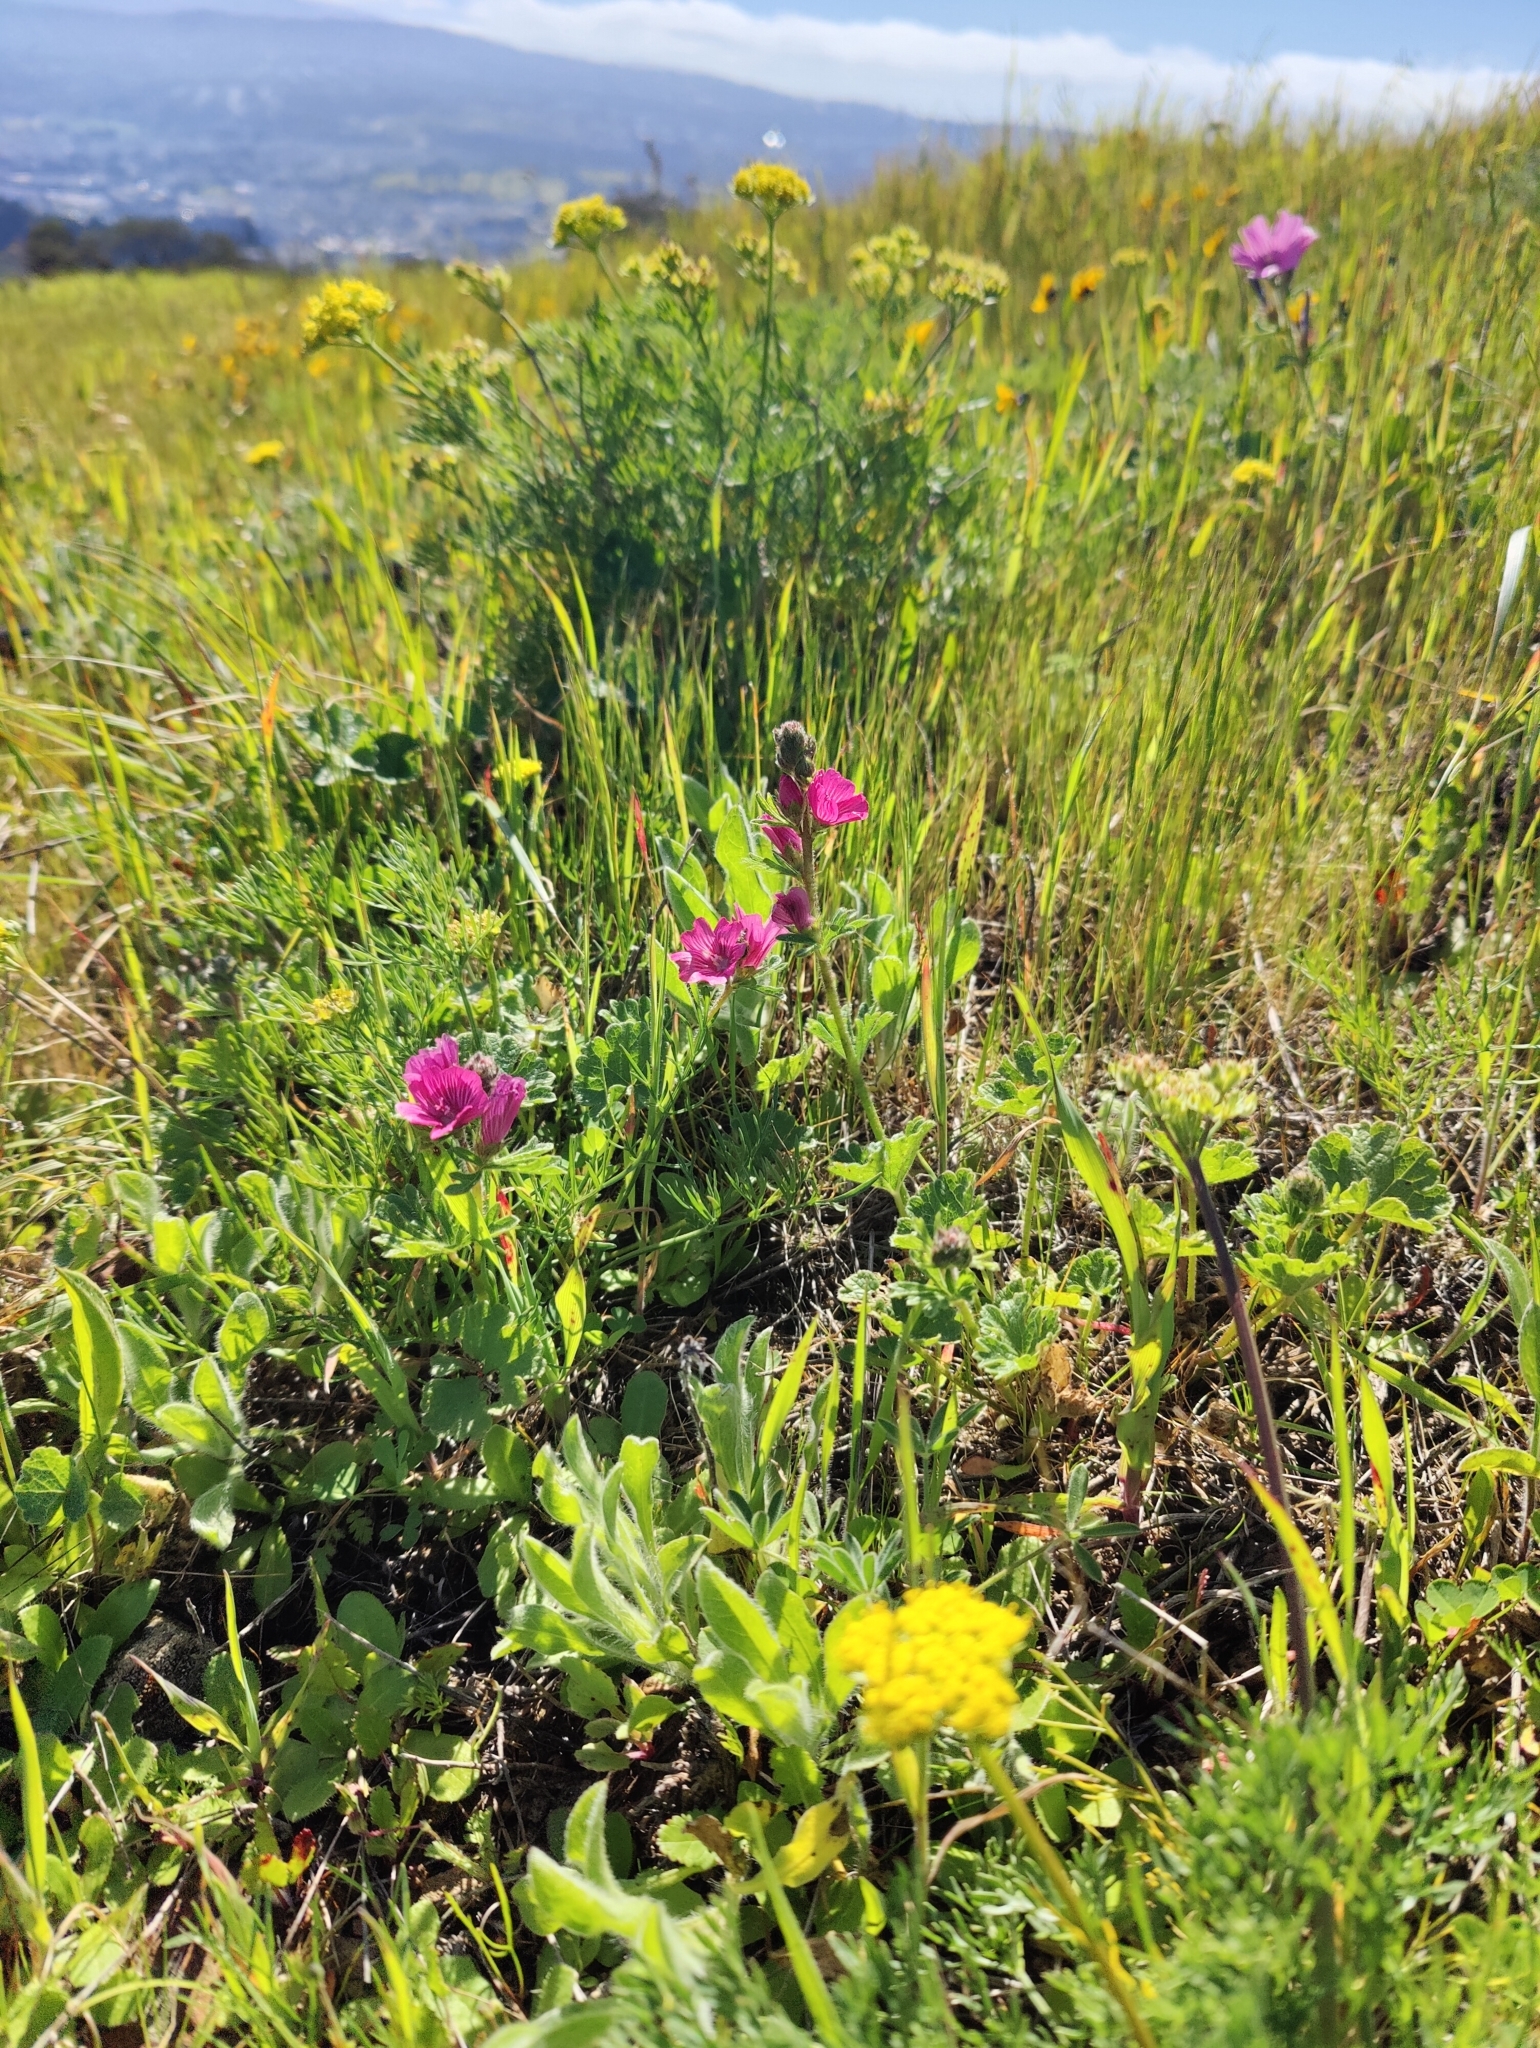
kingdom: Plantae
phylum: Tracheophyta
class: Magnoliopsida
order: Malvales
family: Malvaceae
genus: Sidalcea
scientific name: Sidalcea malviflora
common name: Greek mallow
